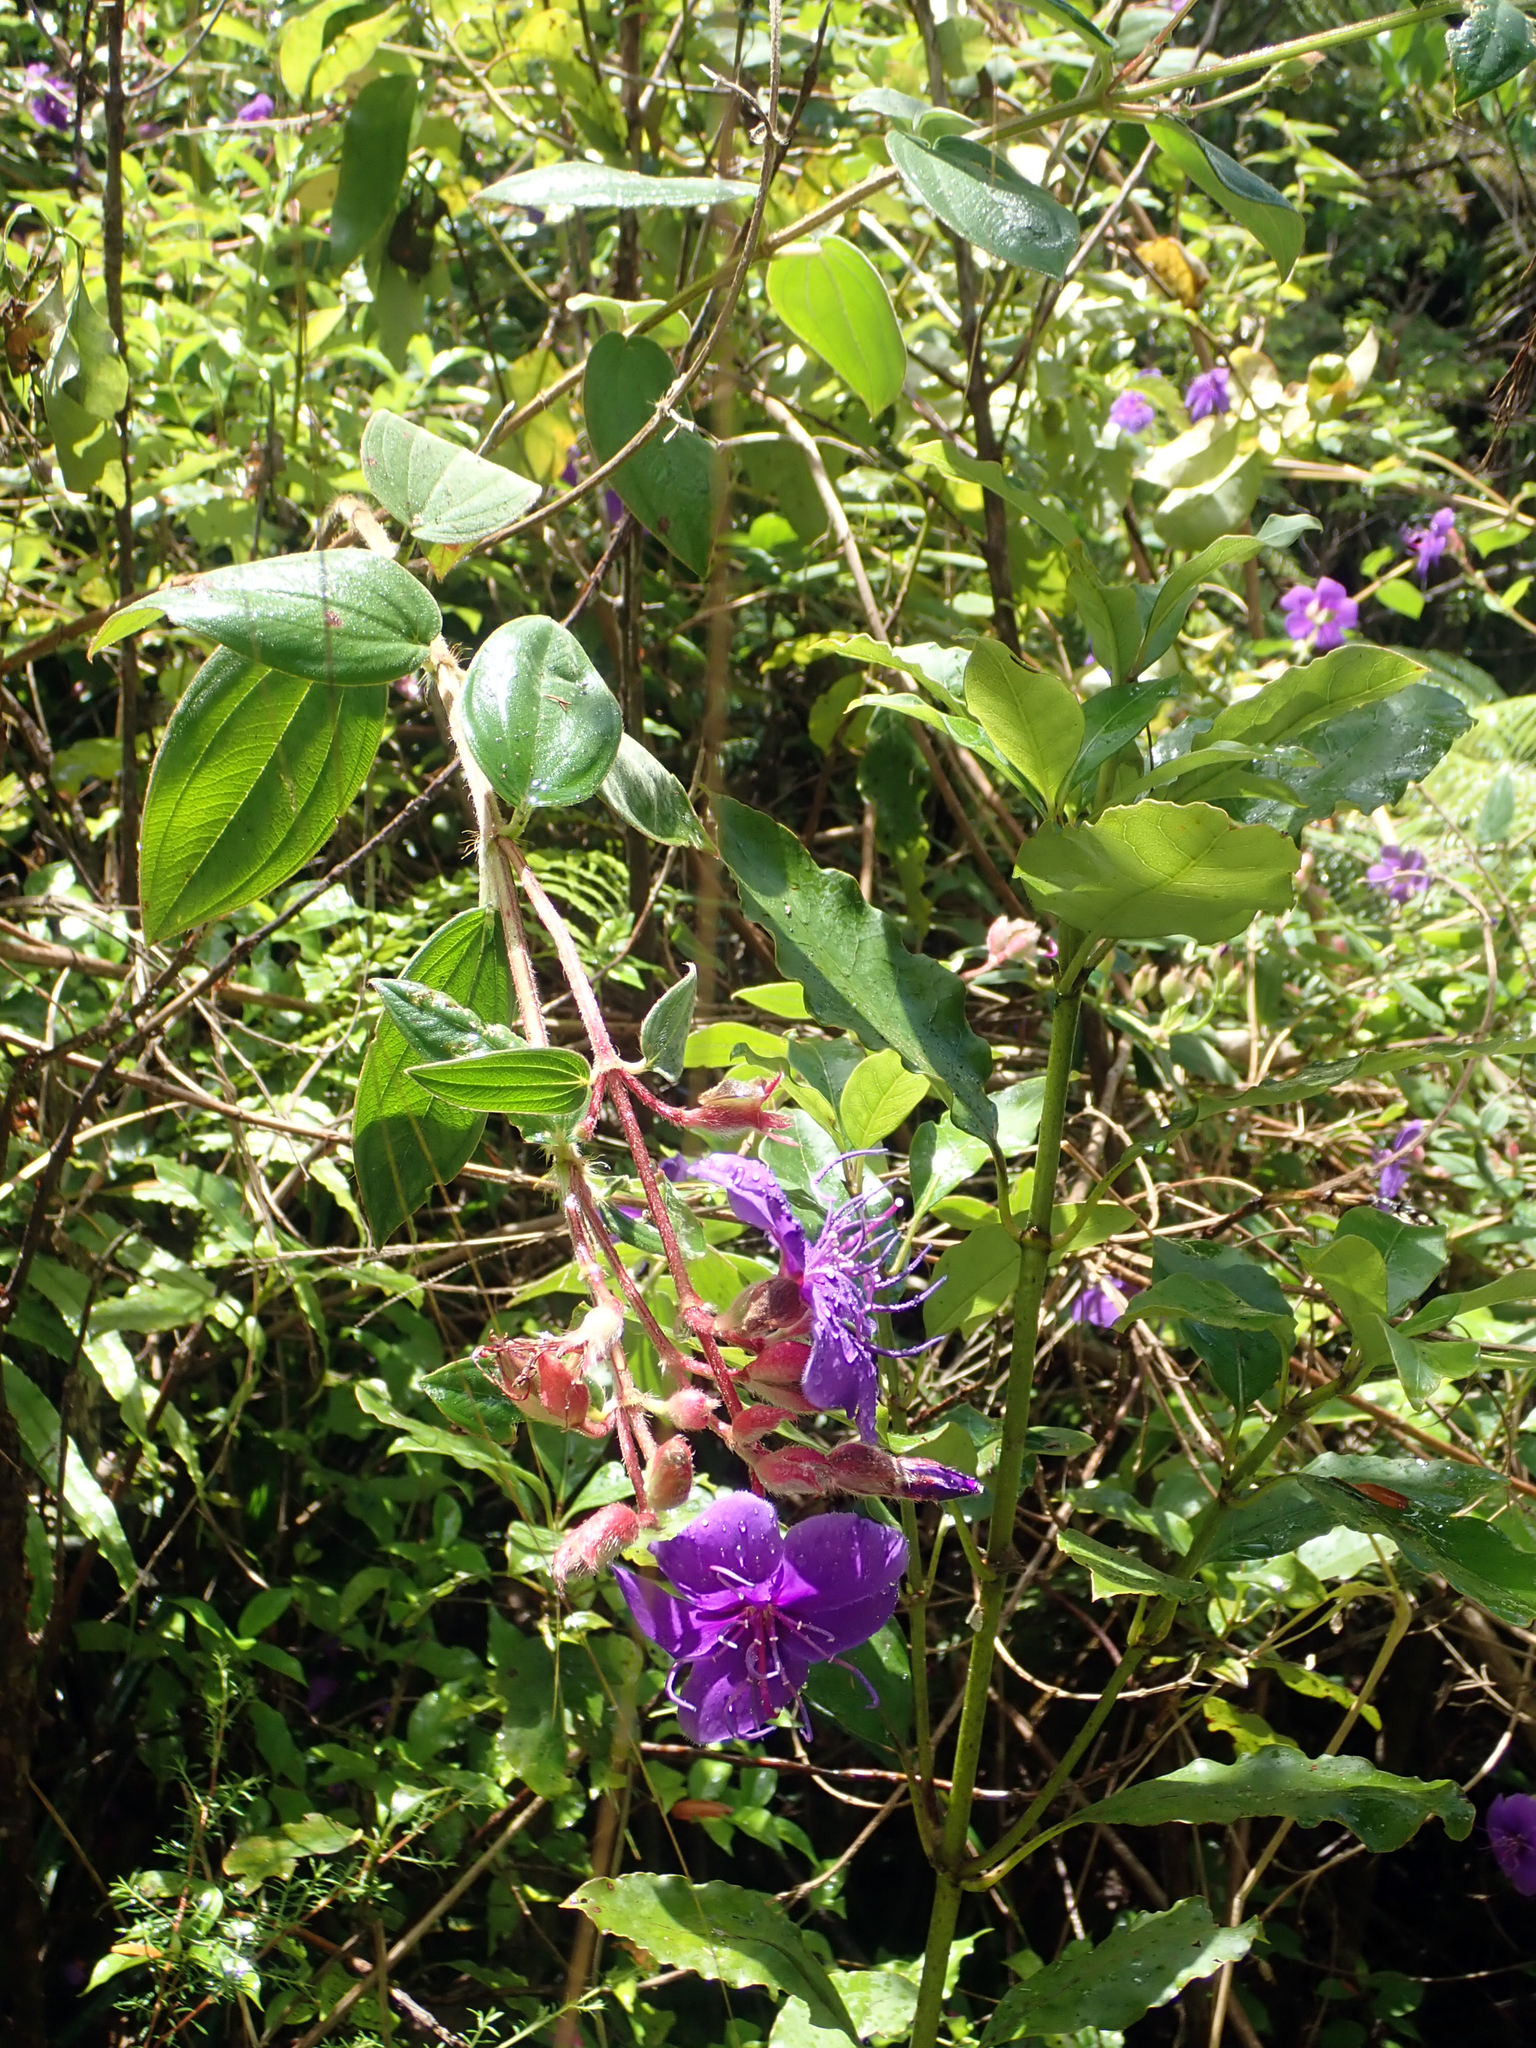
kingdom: Plantae
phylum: Tracheophyta
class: Magnoliopsida
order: Myrtales
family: Melastomataceae
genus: Pleroma
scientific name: Pleroma urvilleanum
